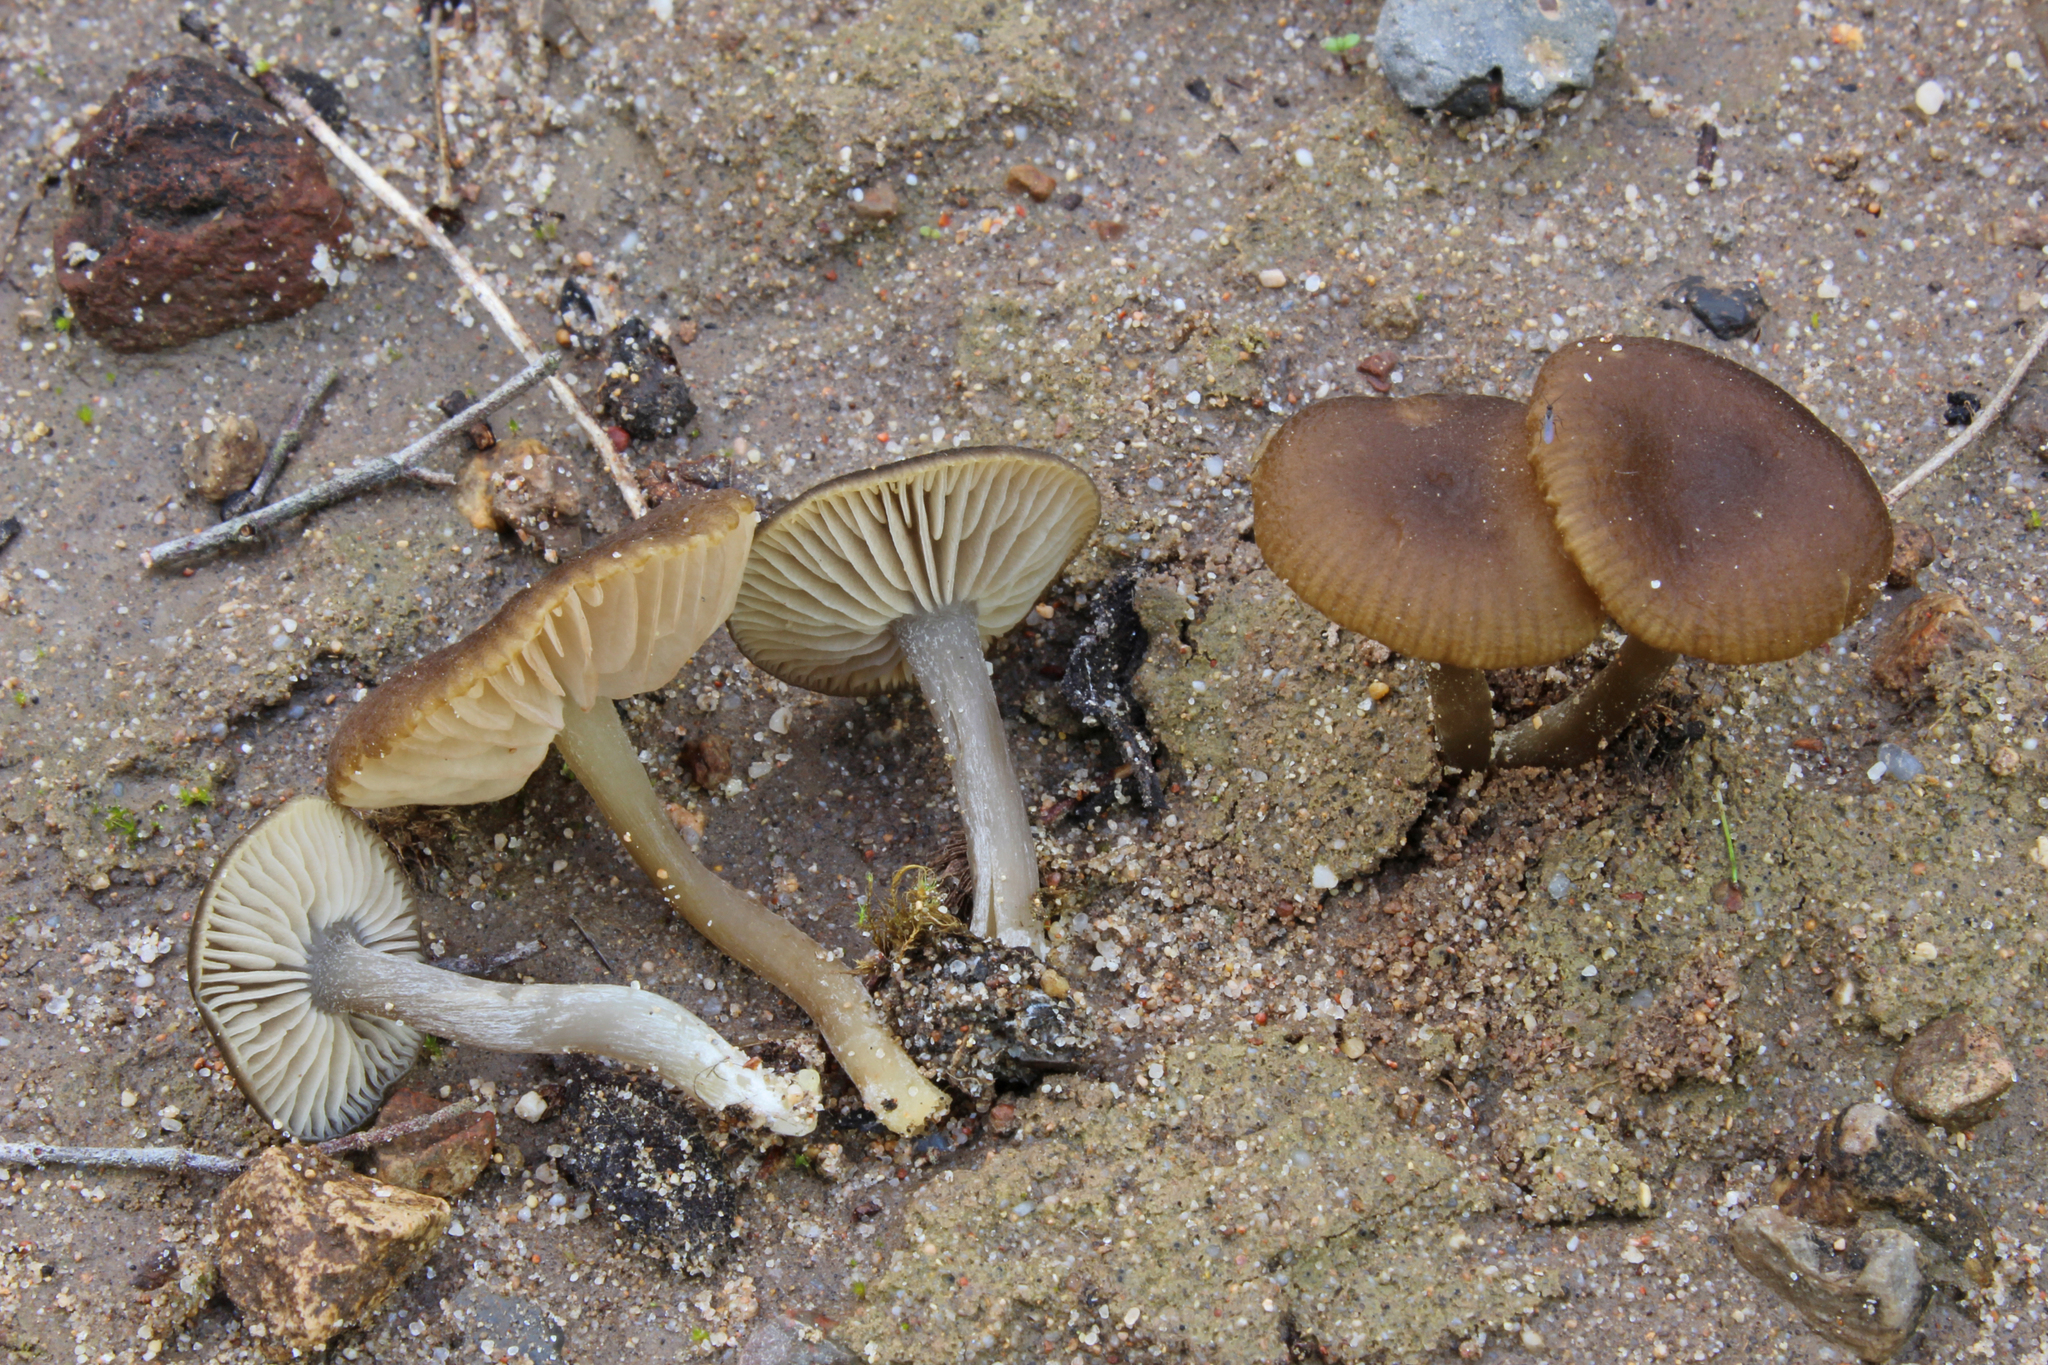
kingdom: Fungi
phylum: Basidiomycota
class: Agaricomycetes
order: Agaricales
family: Entolomataceae
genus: Entoloma
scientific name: Entoloma cistophilum
